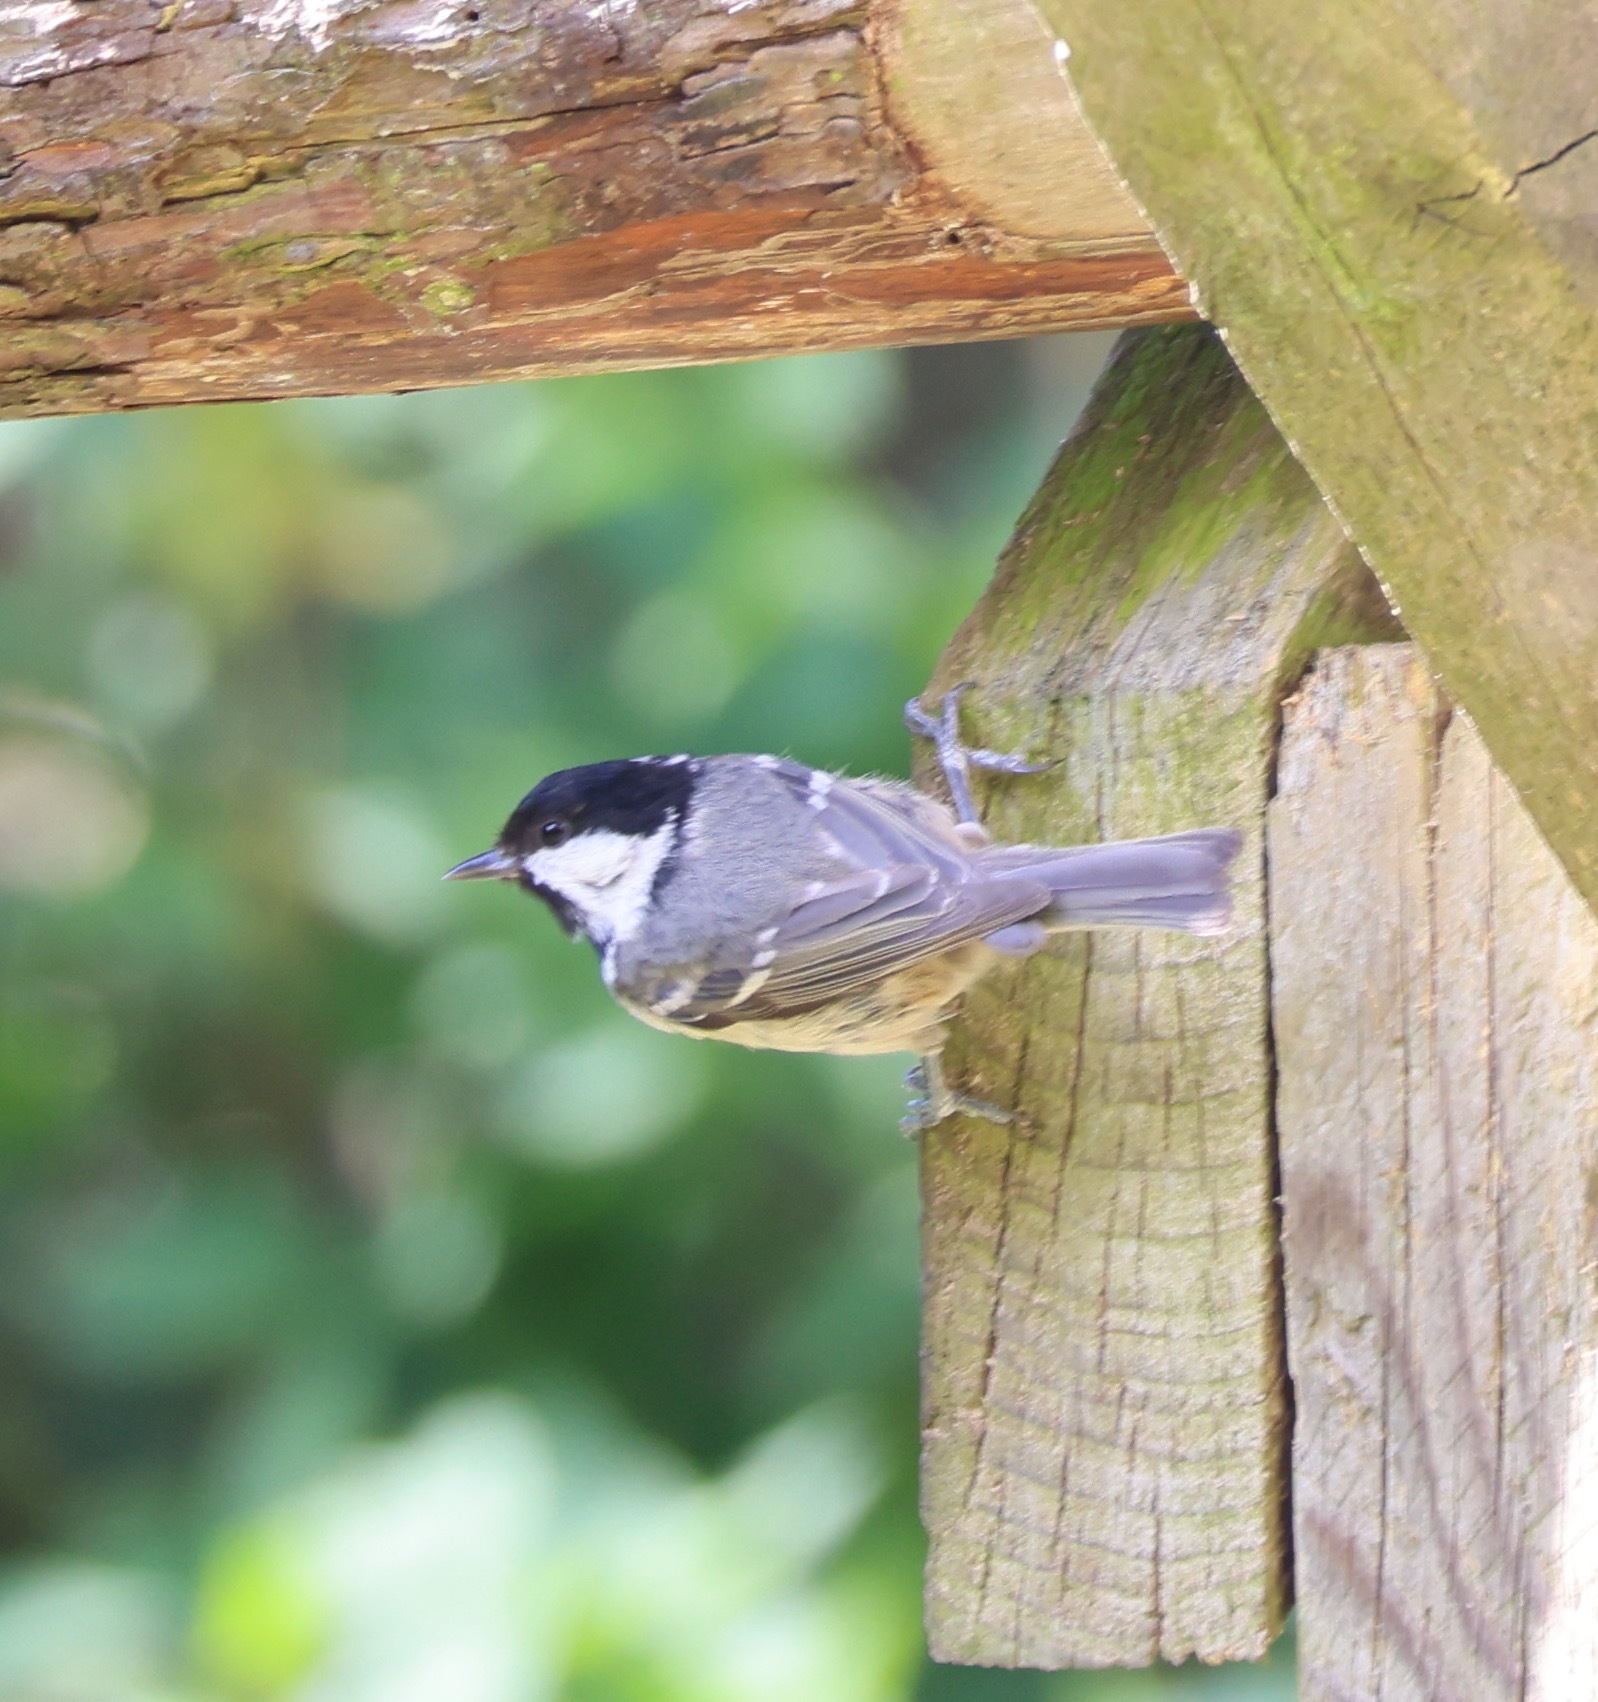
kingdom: Animalia
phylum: Chordata
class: Aves
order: Passeriformes
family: Paridae
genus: Periparus
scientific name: Periparus ater
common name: Coal tit
